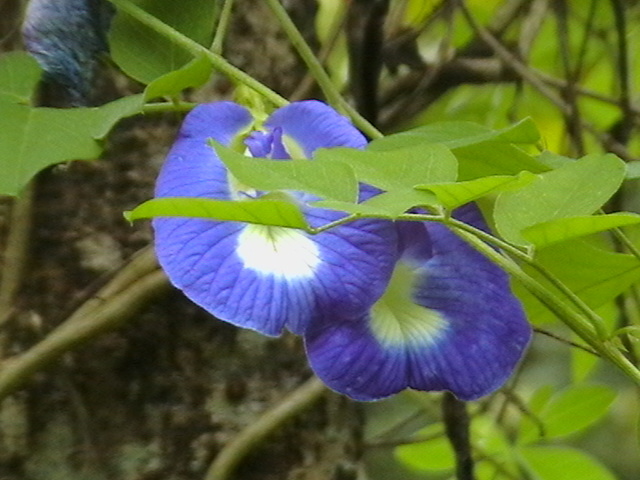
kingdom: Plantae
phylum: Tracheophyta
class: Magnoliopsida
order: Fabales
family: Fabaceae
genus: Clitoria
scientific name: Clitoria ternatea
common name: Asian pigeonwings
